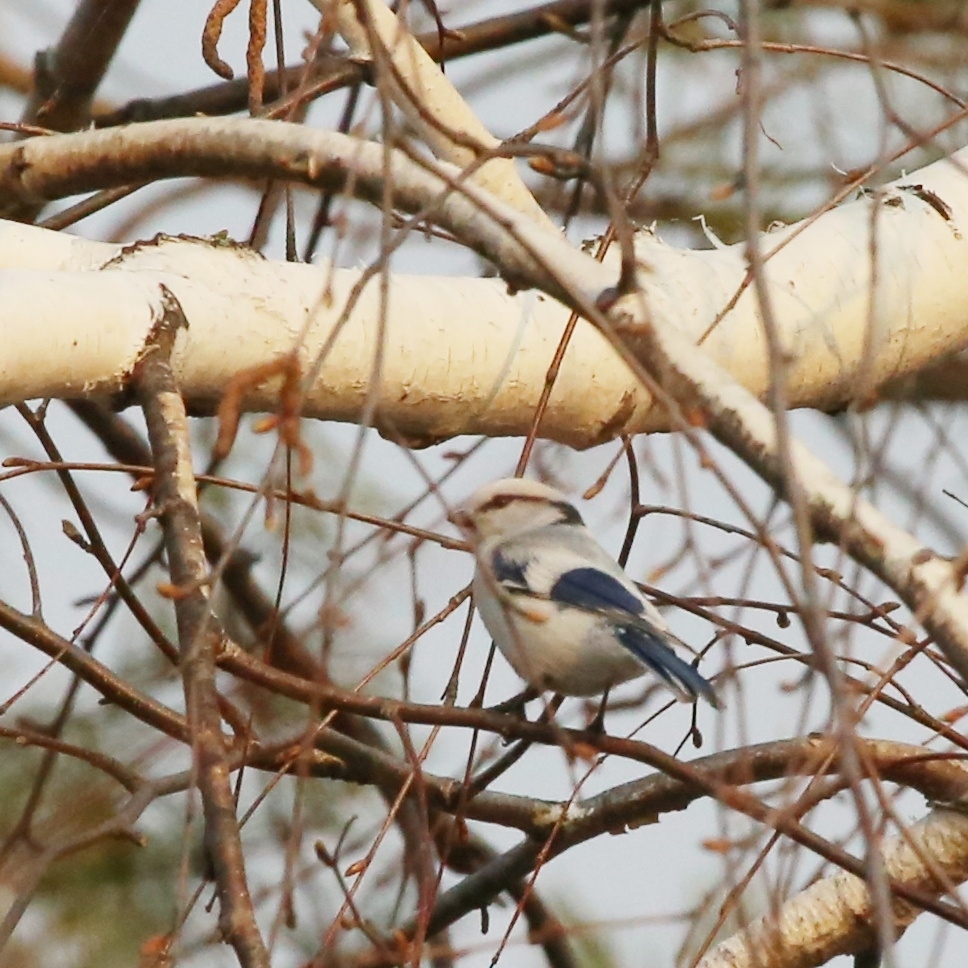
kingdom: Animalia
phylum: Chordata
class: Aves
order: Passeriformes
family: Paridae
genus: Cyanistes
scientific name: Cyanistes cyanus
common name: Azure tit
